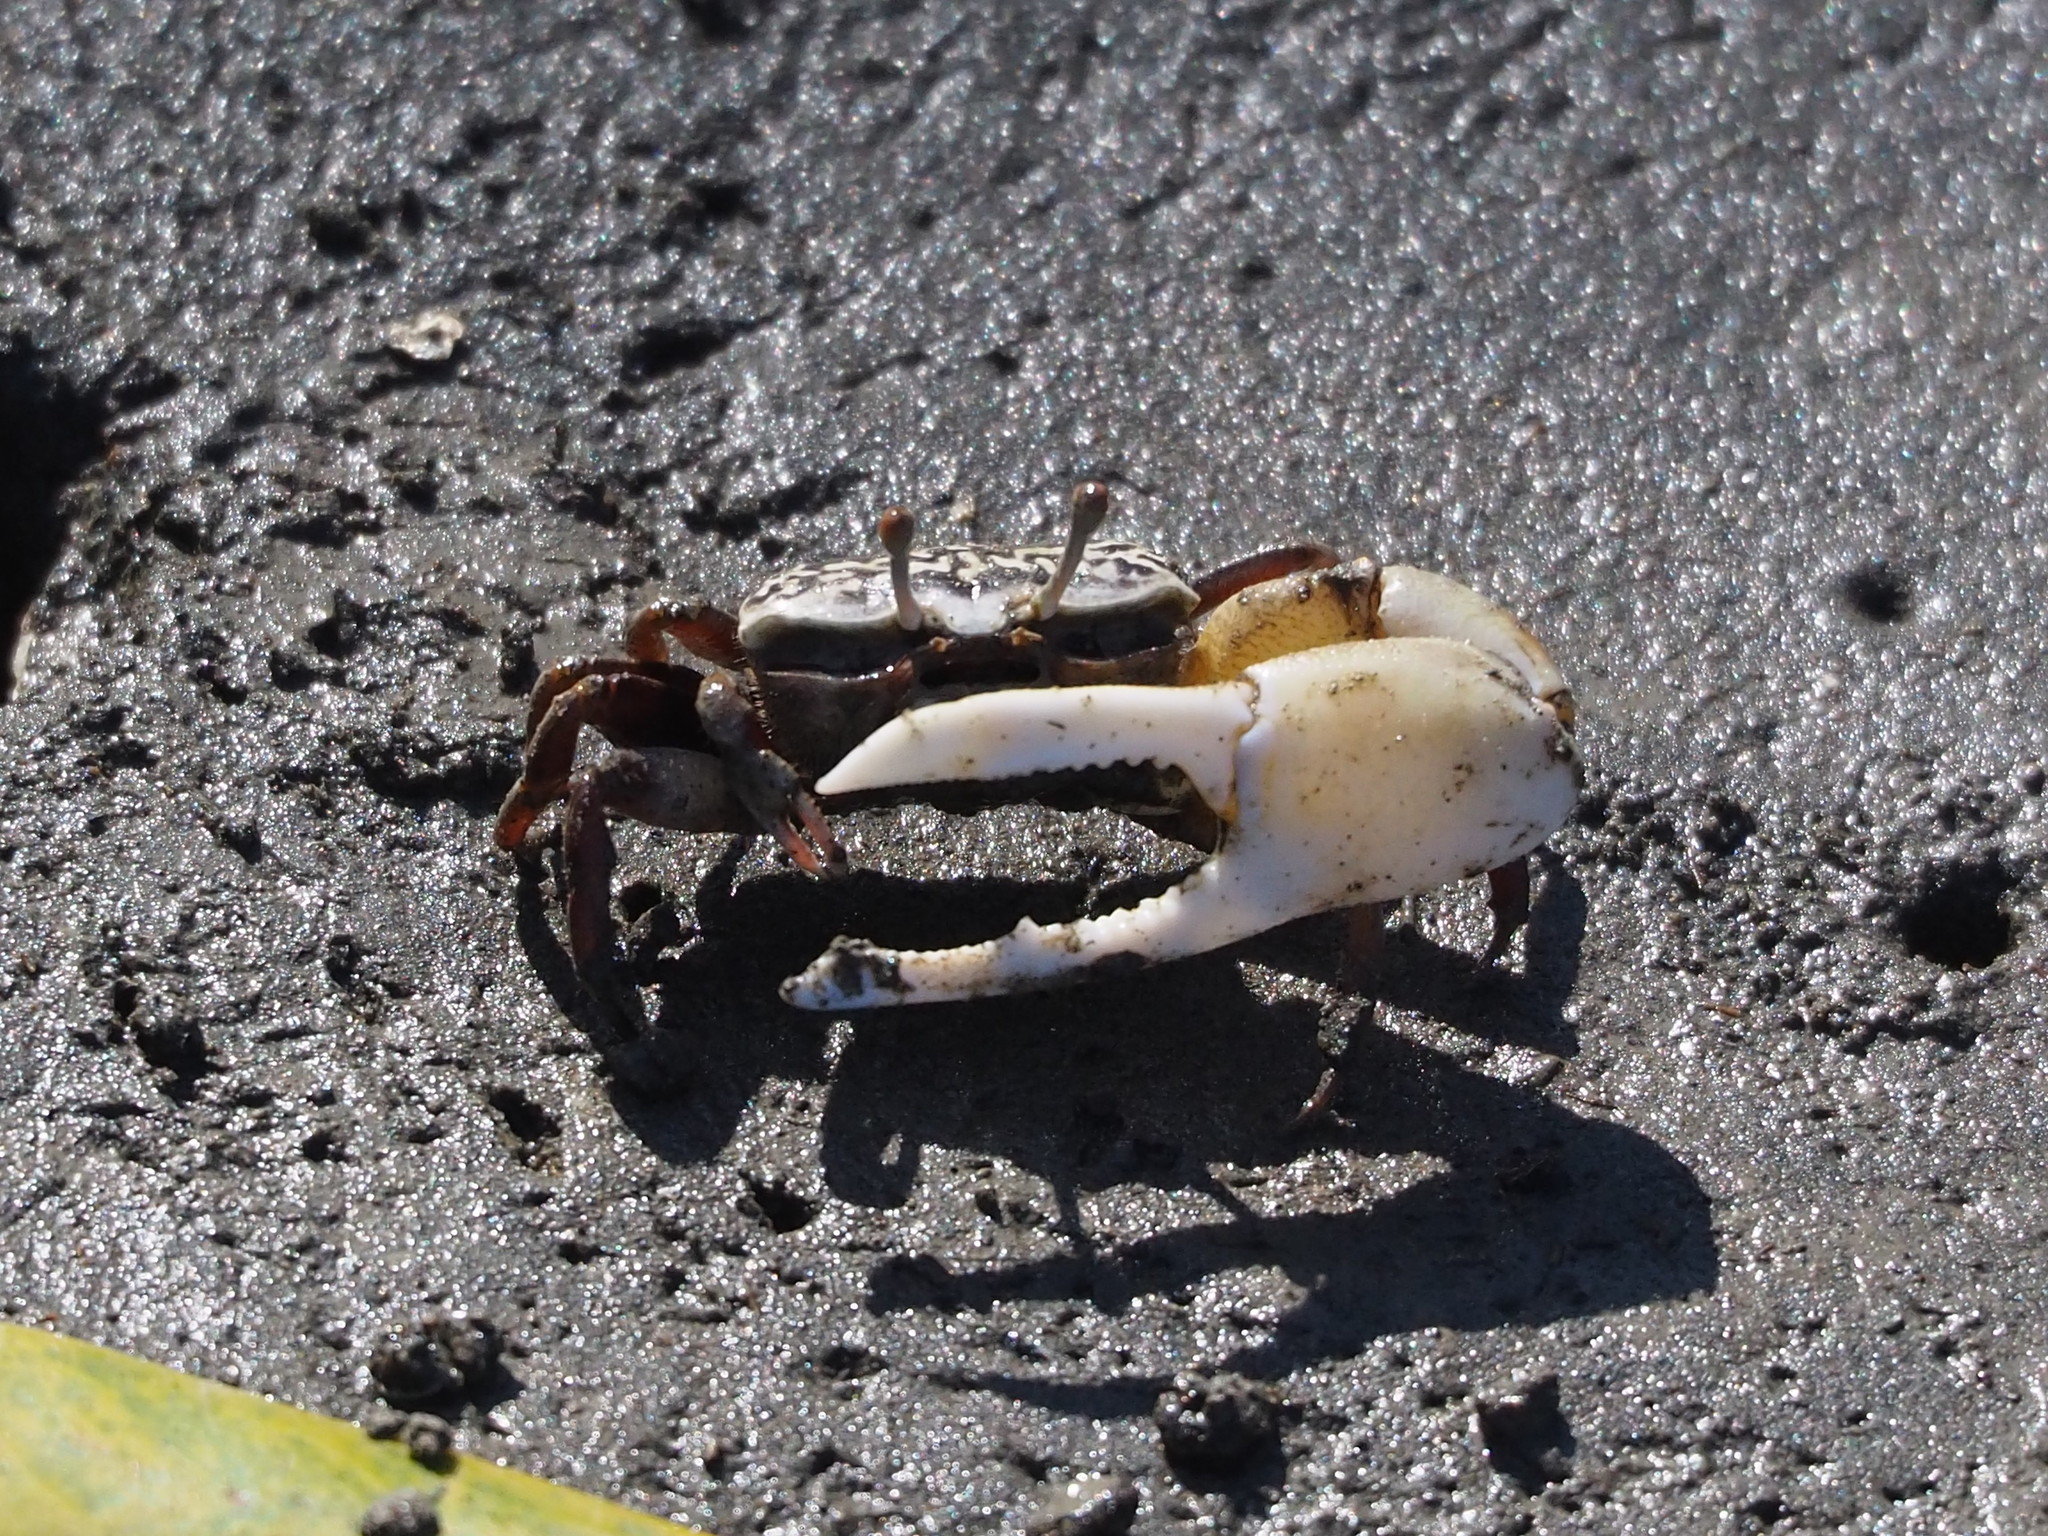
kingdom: Animalia
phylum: Arthropoda
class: Malacostraca
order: Decapoda
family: Ocypodidae
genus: Austruca
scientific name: Austruca lactea
